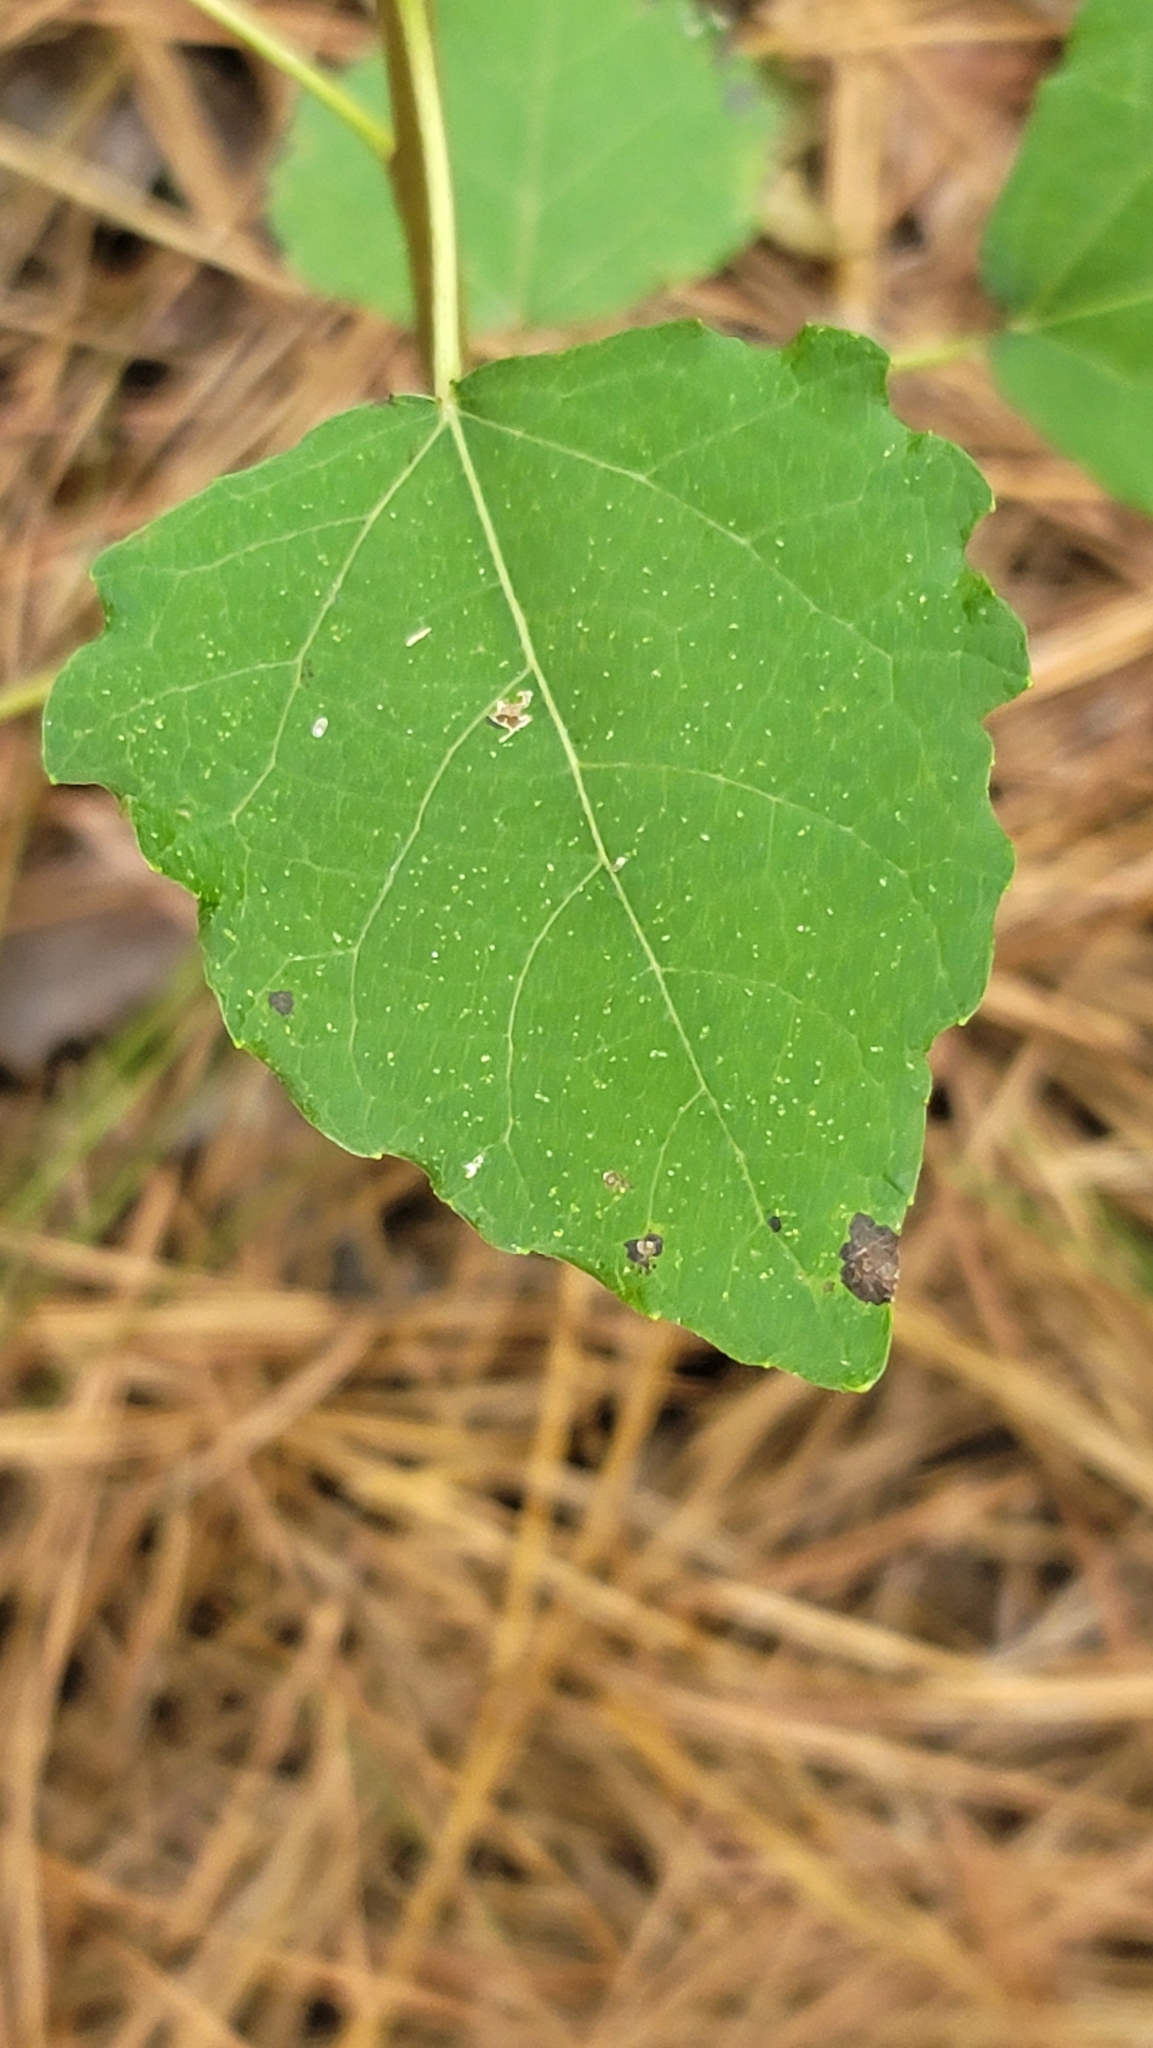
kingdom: Plantae
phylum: Tracheophyta
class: Magnoliopsida
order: Malpighiales
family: Salicaceae
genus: Populus
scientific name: Populus tomentosa
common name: Chinese white poplar
